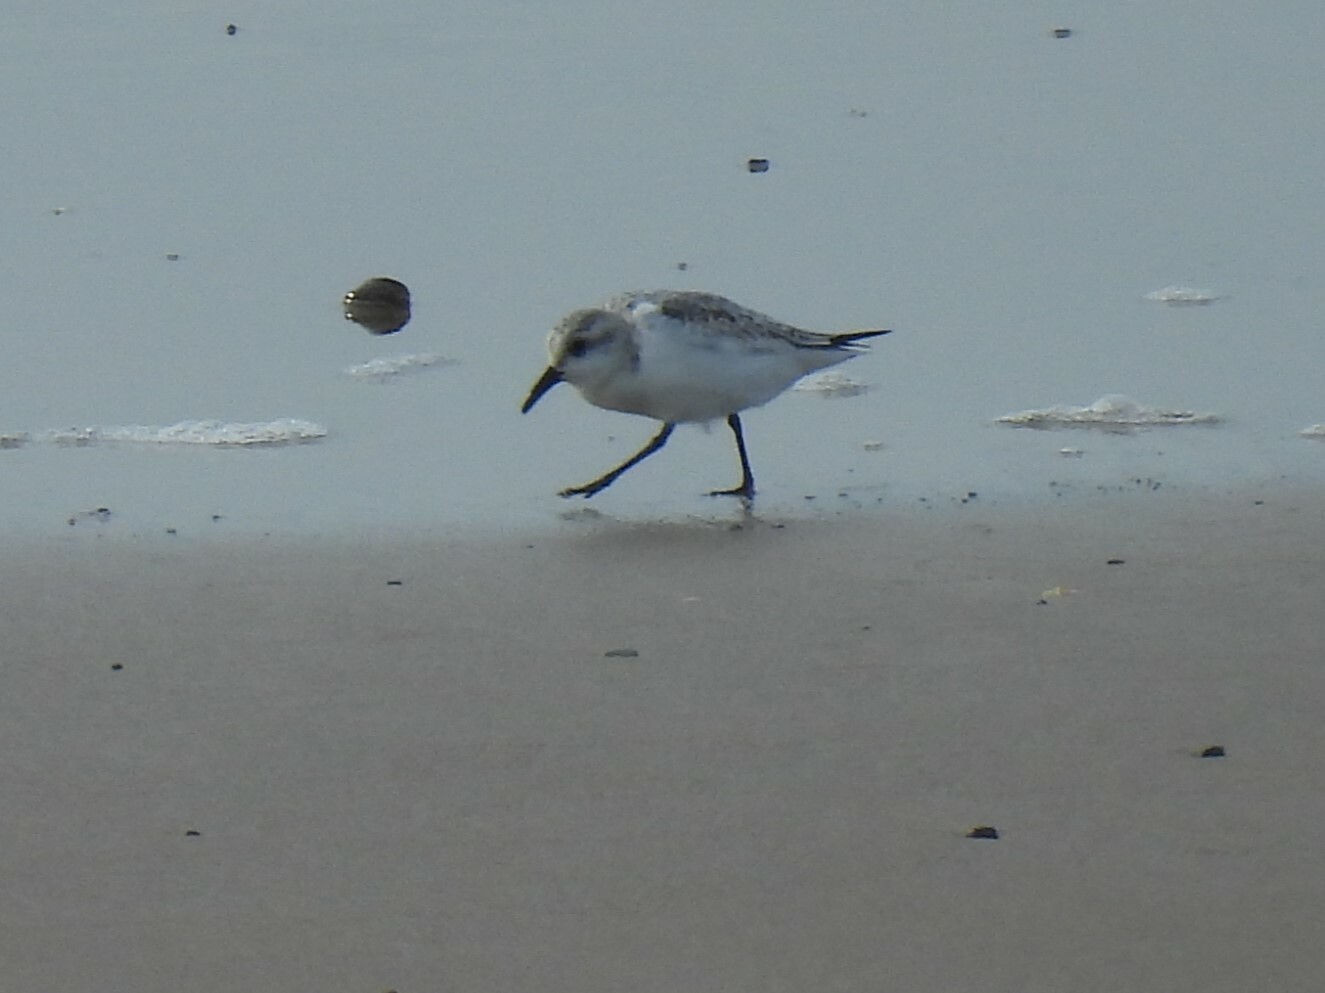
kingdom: Animalia
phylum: Chordata
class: Aves
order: Charadriiformes
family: Scolopacidae
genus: Calidris
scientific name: Calidris alba
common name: Sanderling
